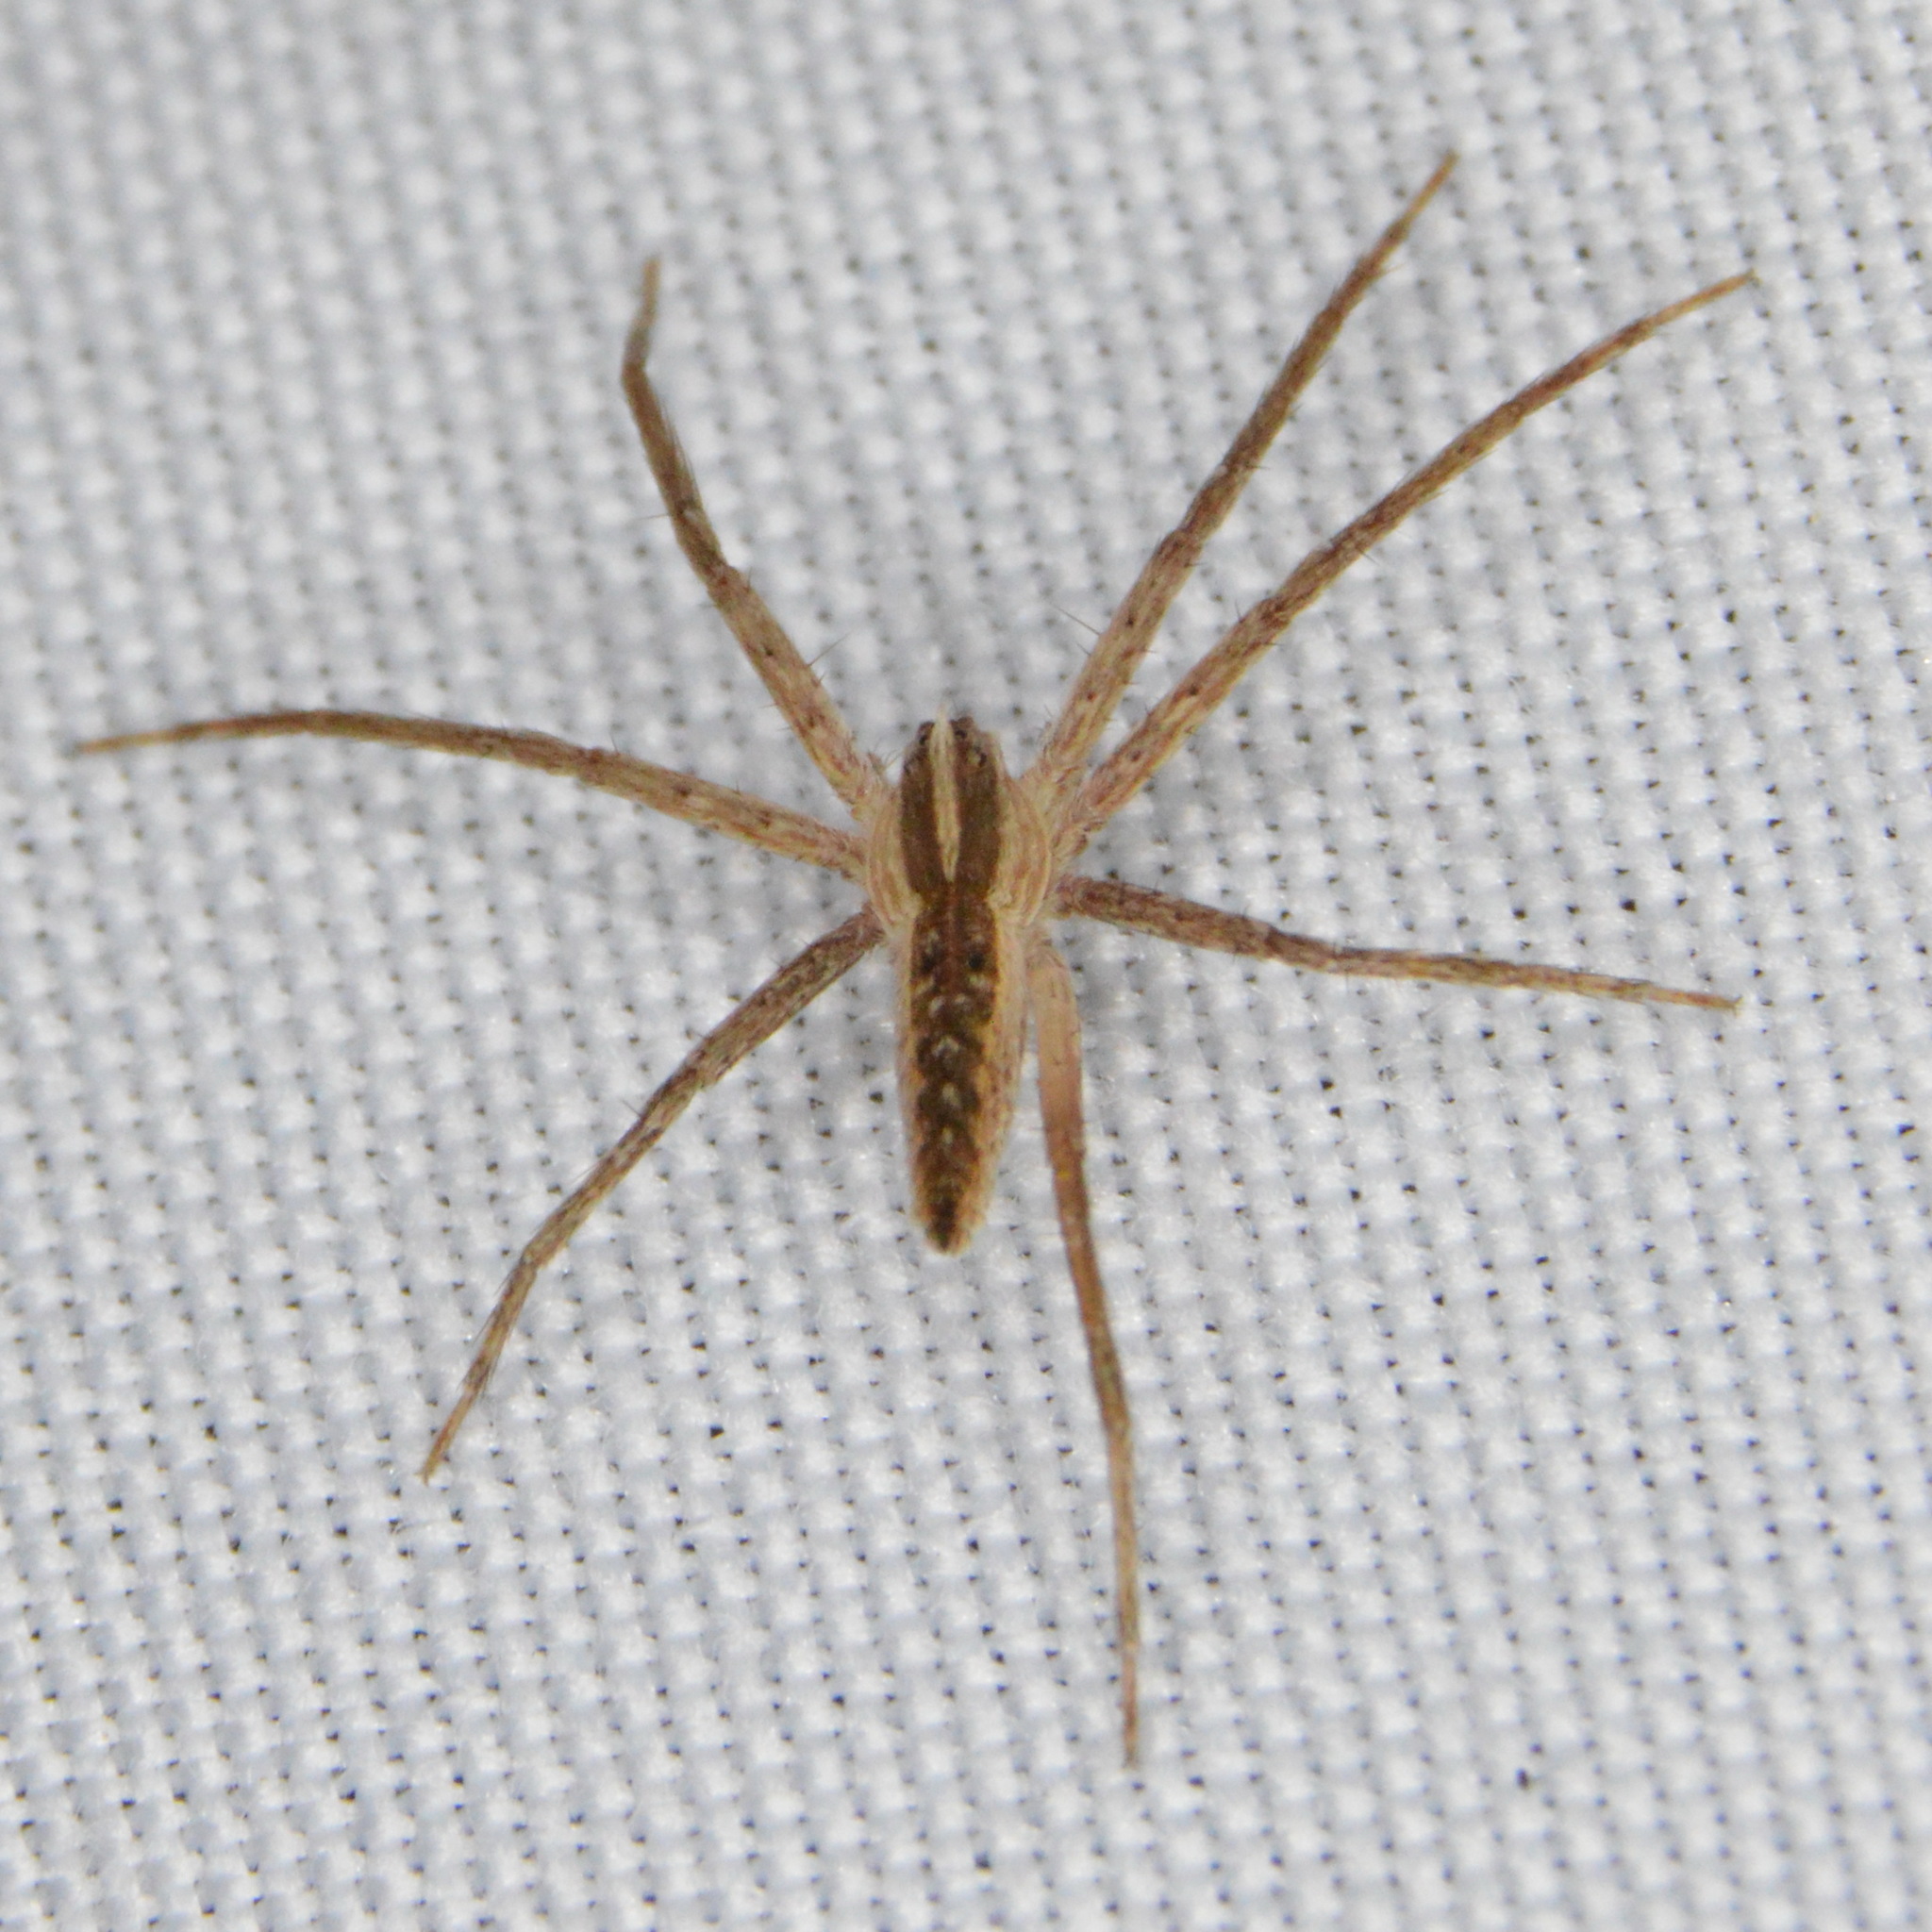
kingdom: Animalia
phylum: Arthropoda
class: Arachnida
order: Araneae
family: Pisauridae
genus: Pisaurina
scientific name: Pisaurina dubia
